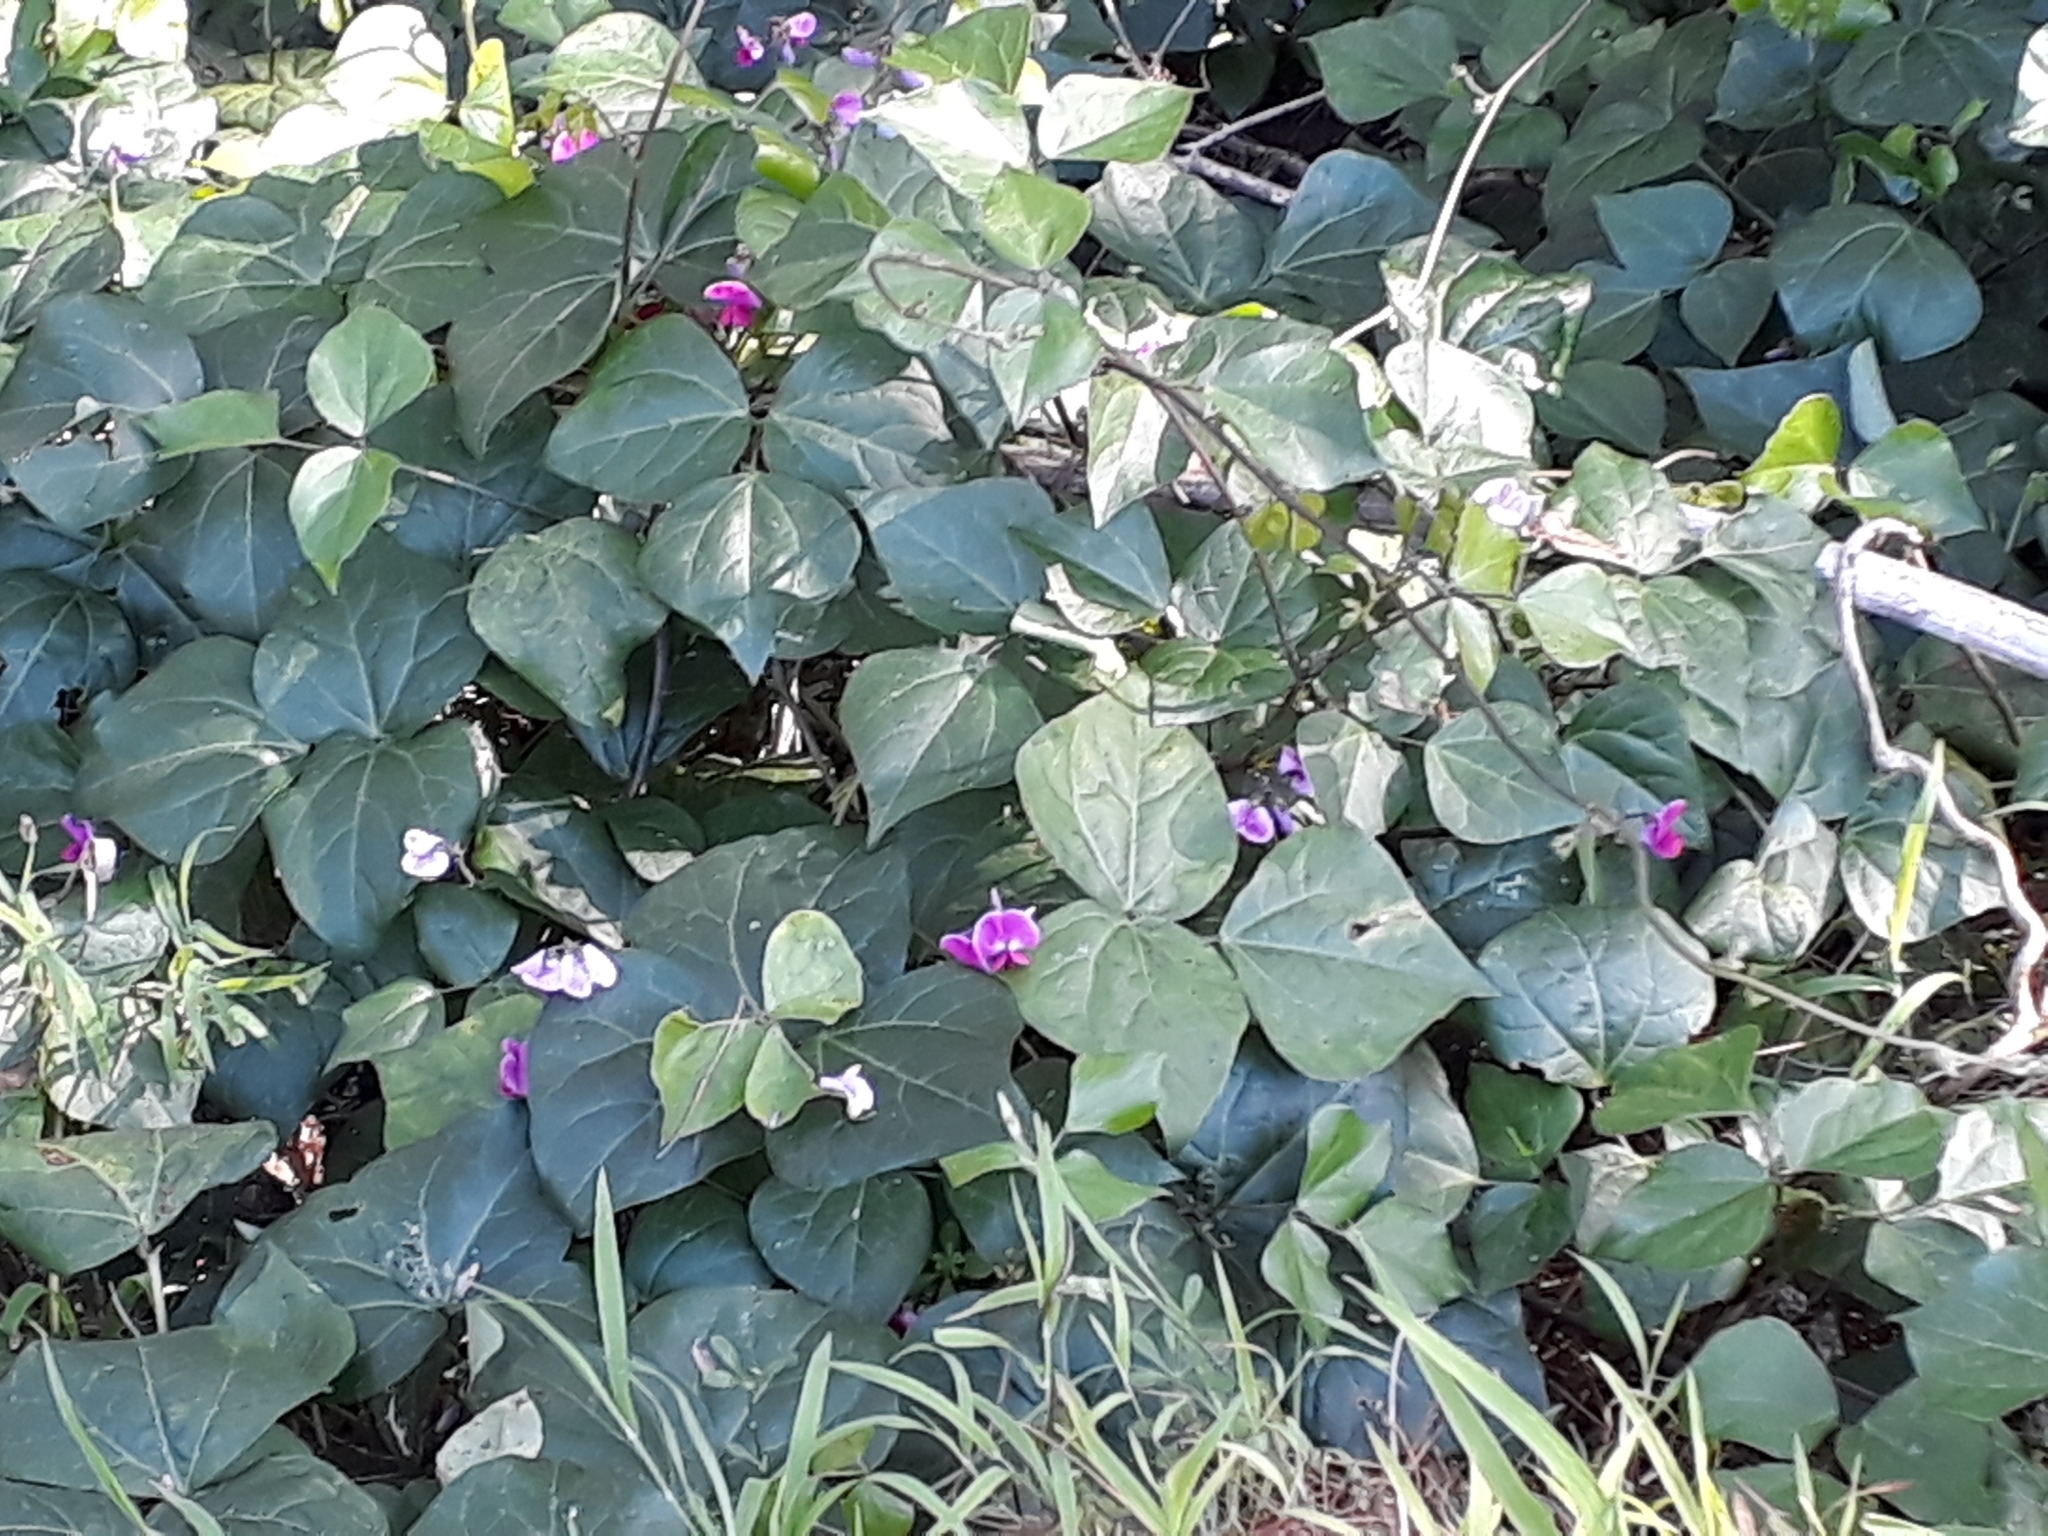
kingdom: Plantae
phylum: Tracheophyta
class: Magnoliopsida
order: Fabales
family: Fabaceae
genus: Dipogon
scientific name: Dipogon lignosus
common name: Okie bean
